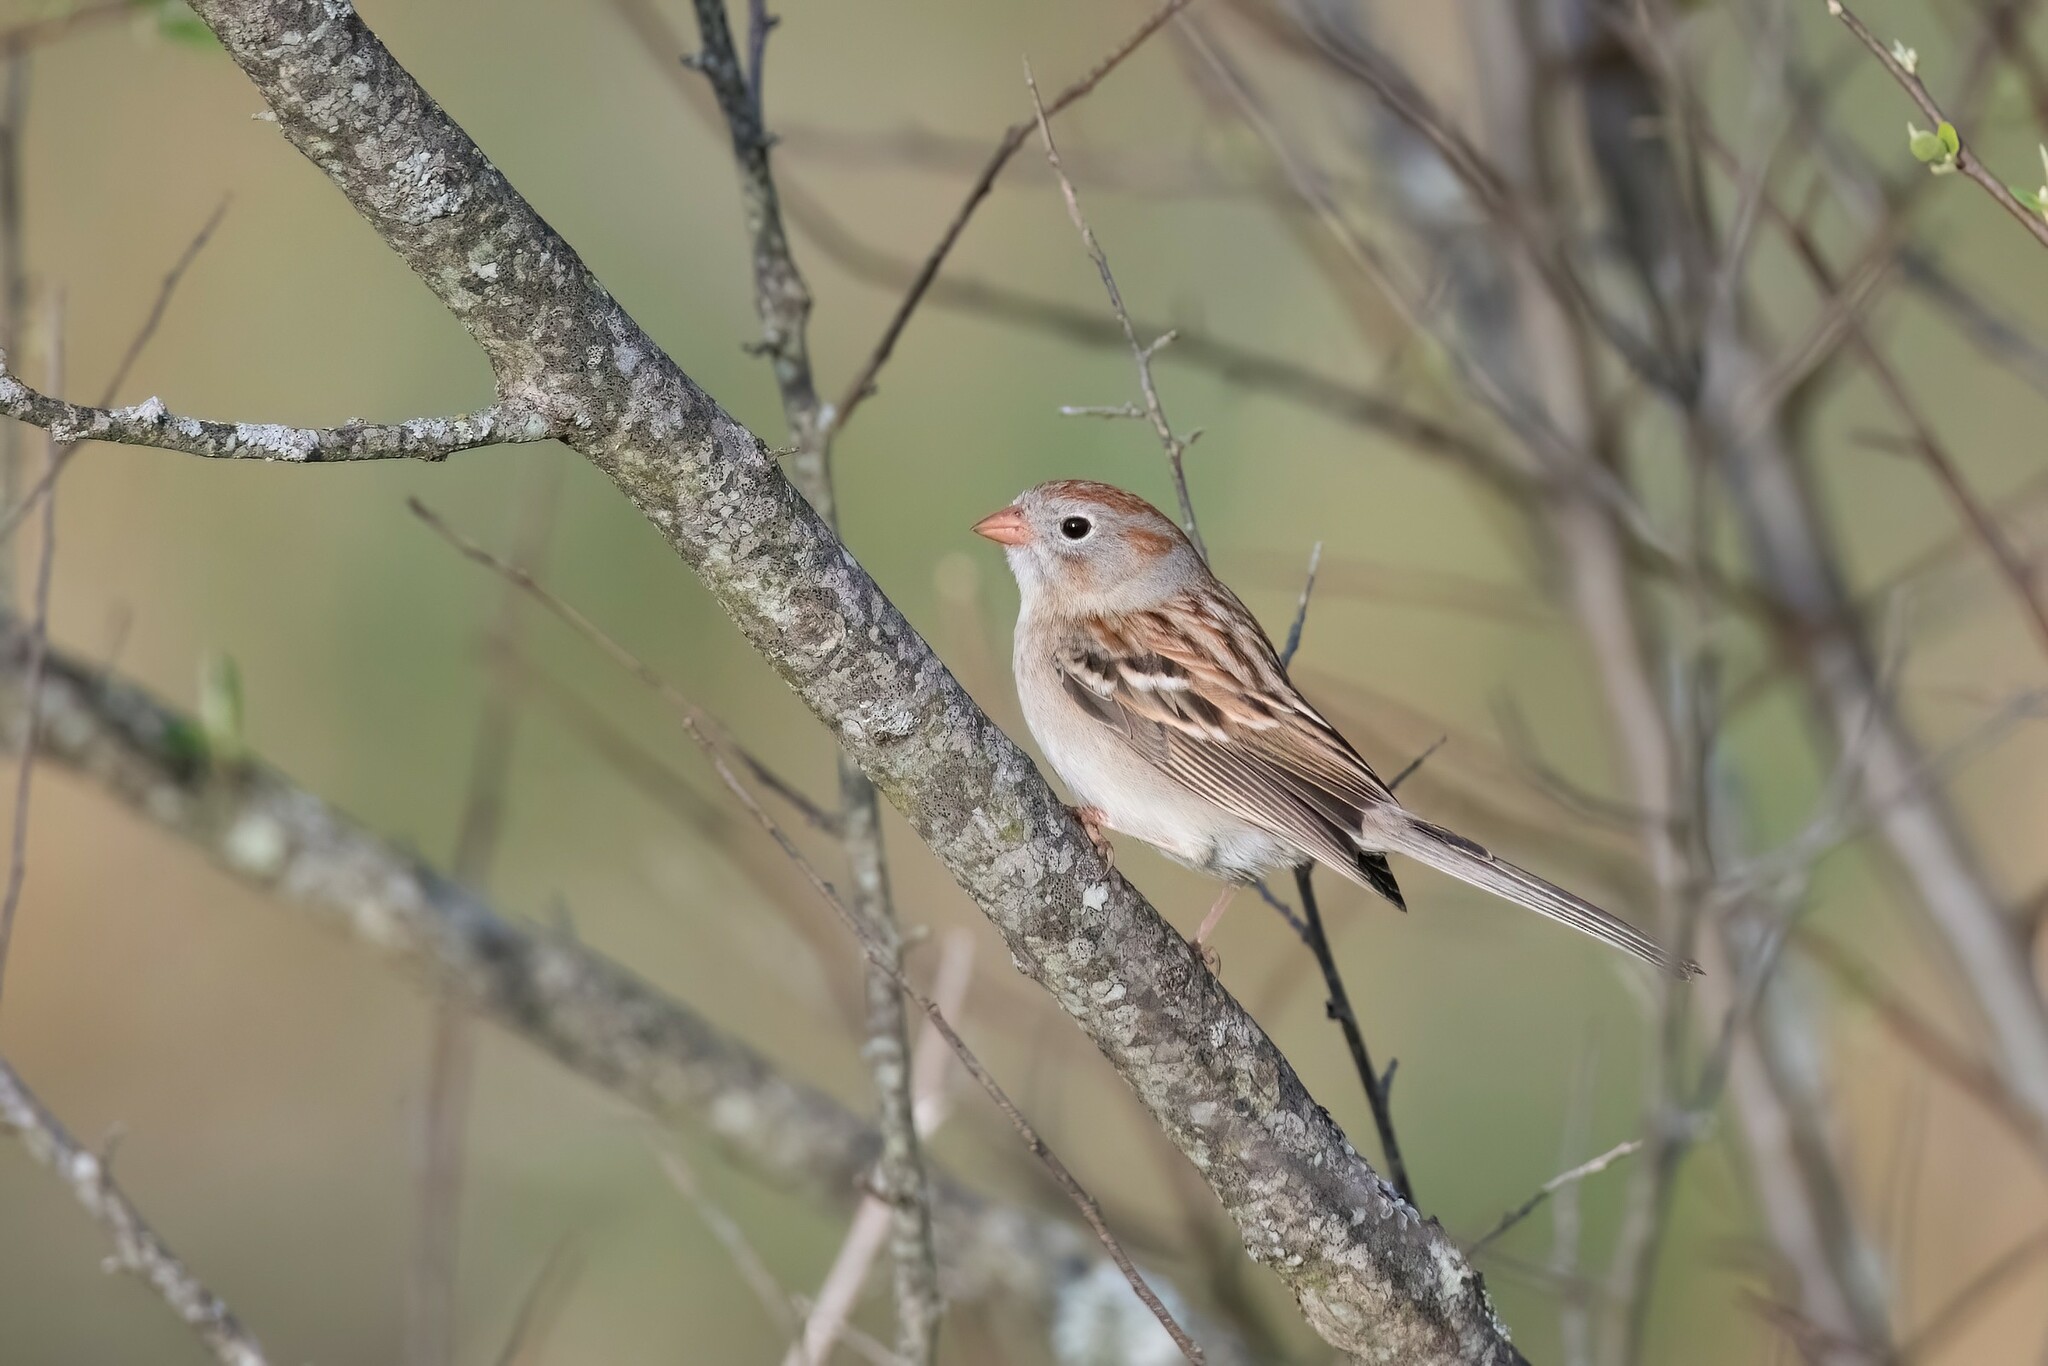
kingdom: Animalia
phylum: Chordata
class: Aves
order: Passeriformes
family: Passerellidae
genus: Spizella
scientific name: Spizella pusilla
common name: Field sparrow
